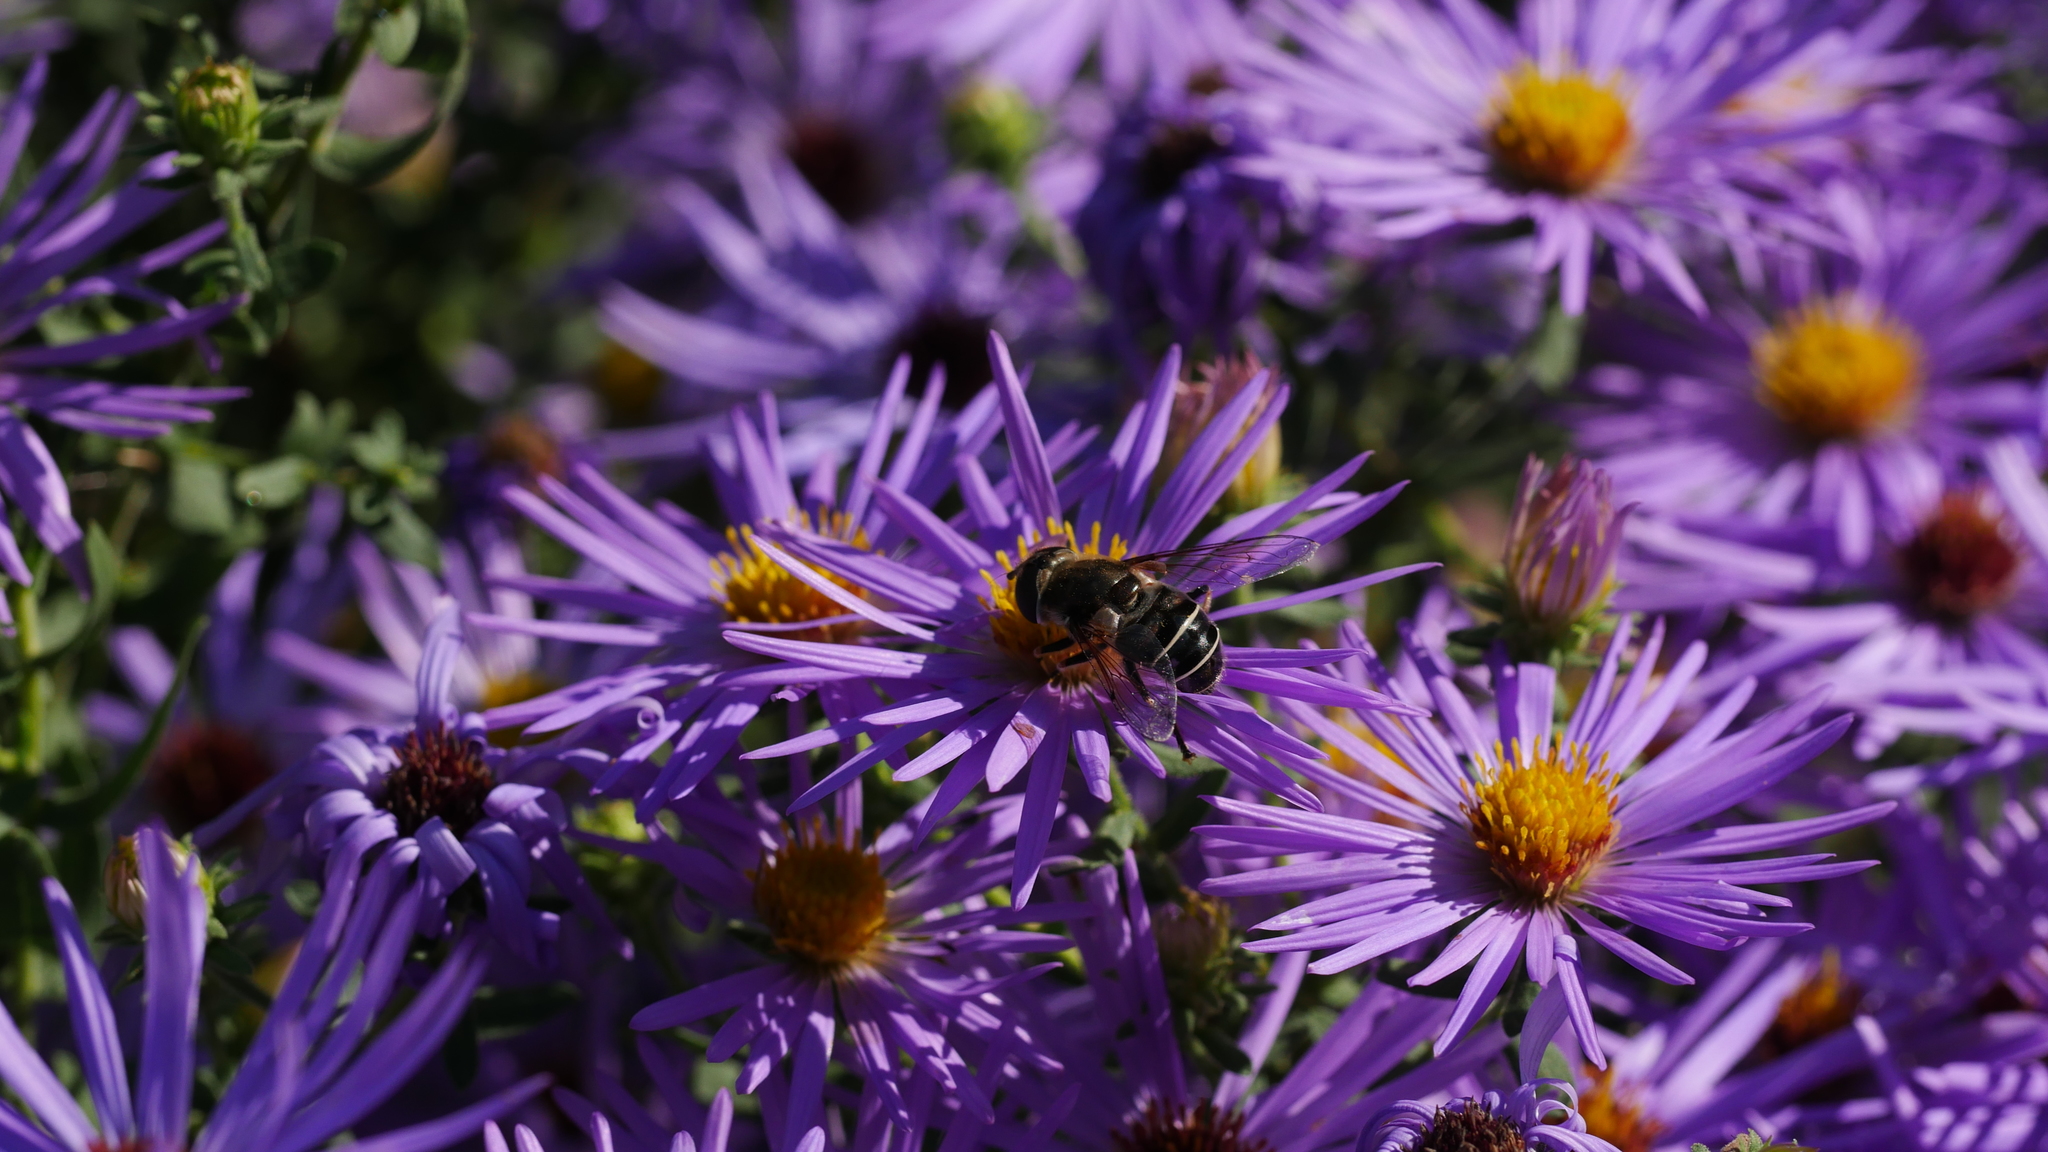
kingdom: Animalia
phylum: Arthropoda
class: Insecta
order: Diptera
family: Syrphidae
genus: Eristalis
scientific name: Eristalis dimidiata
